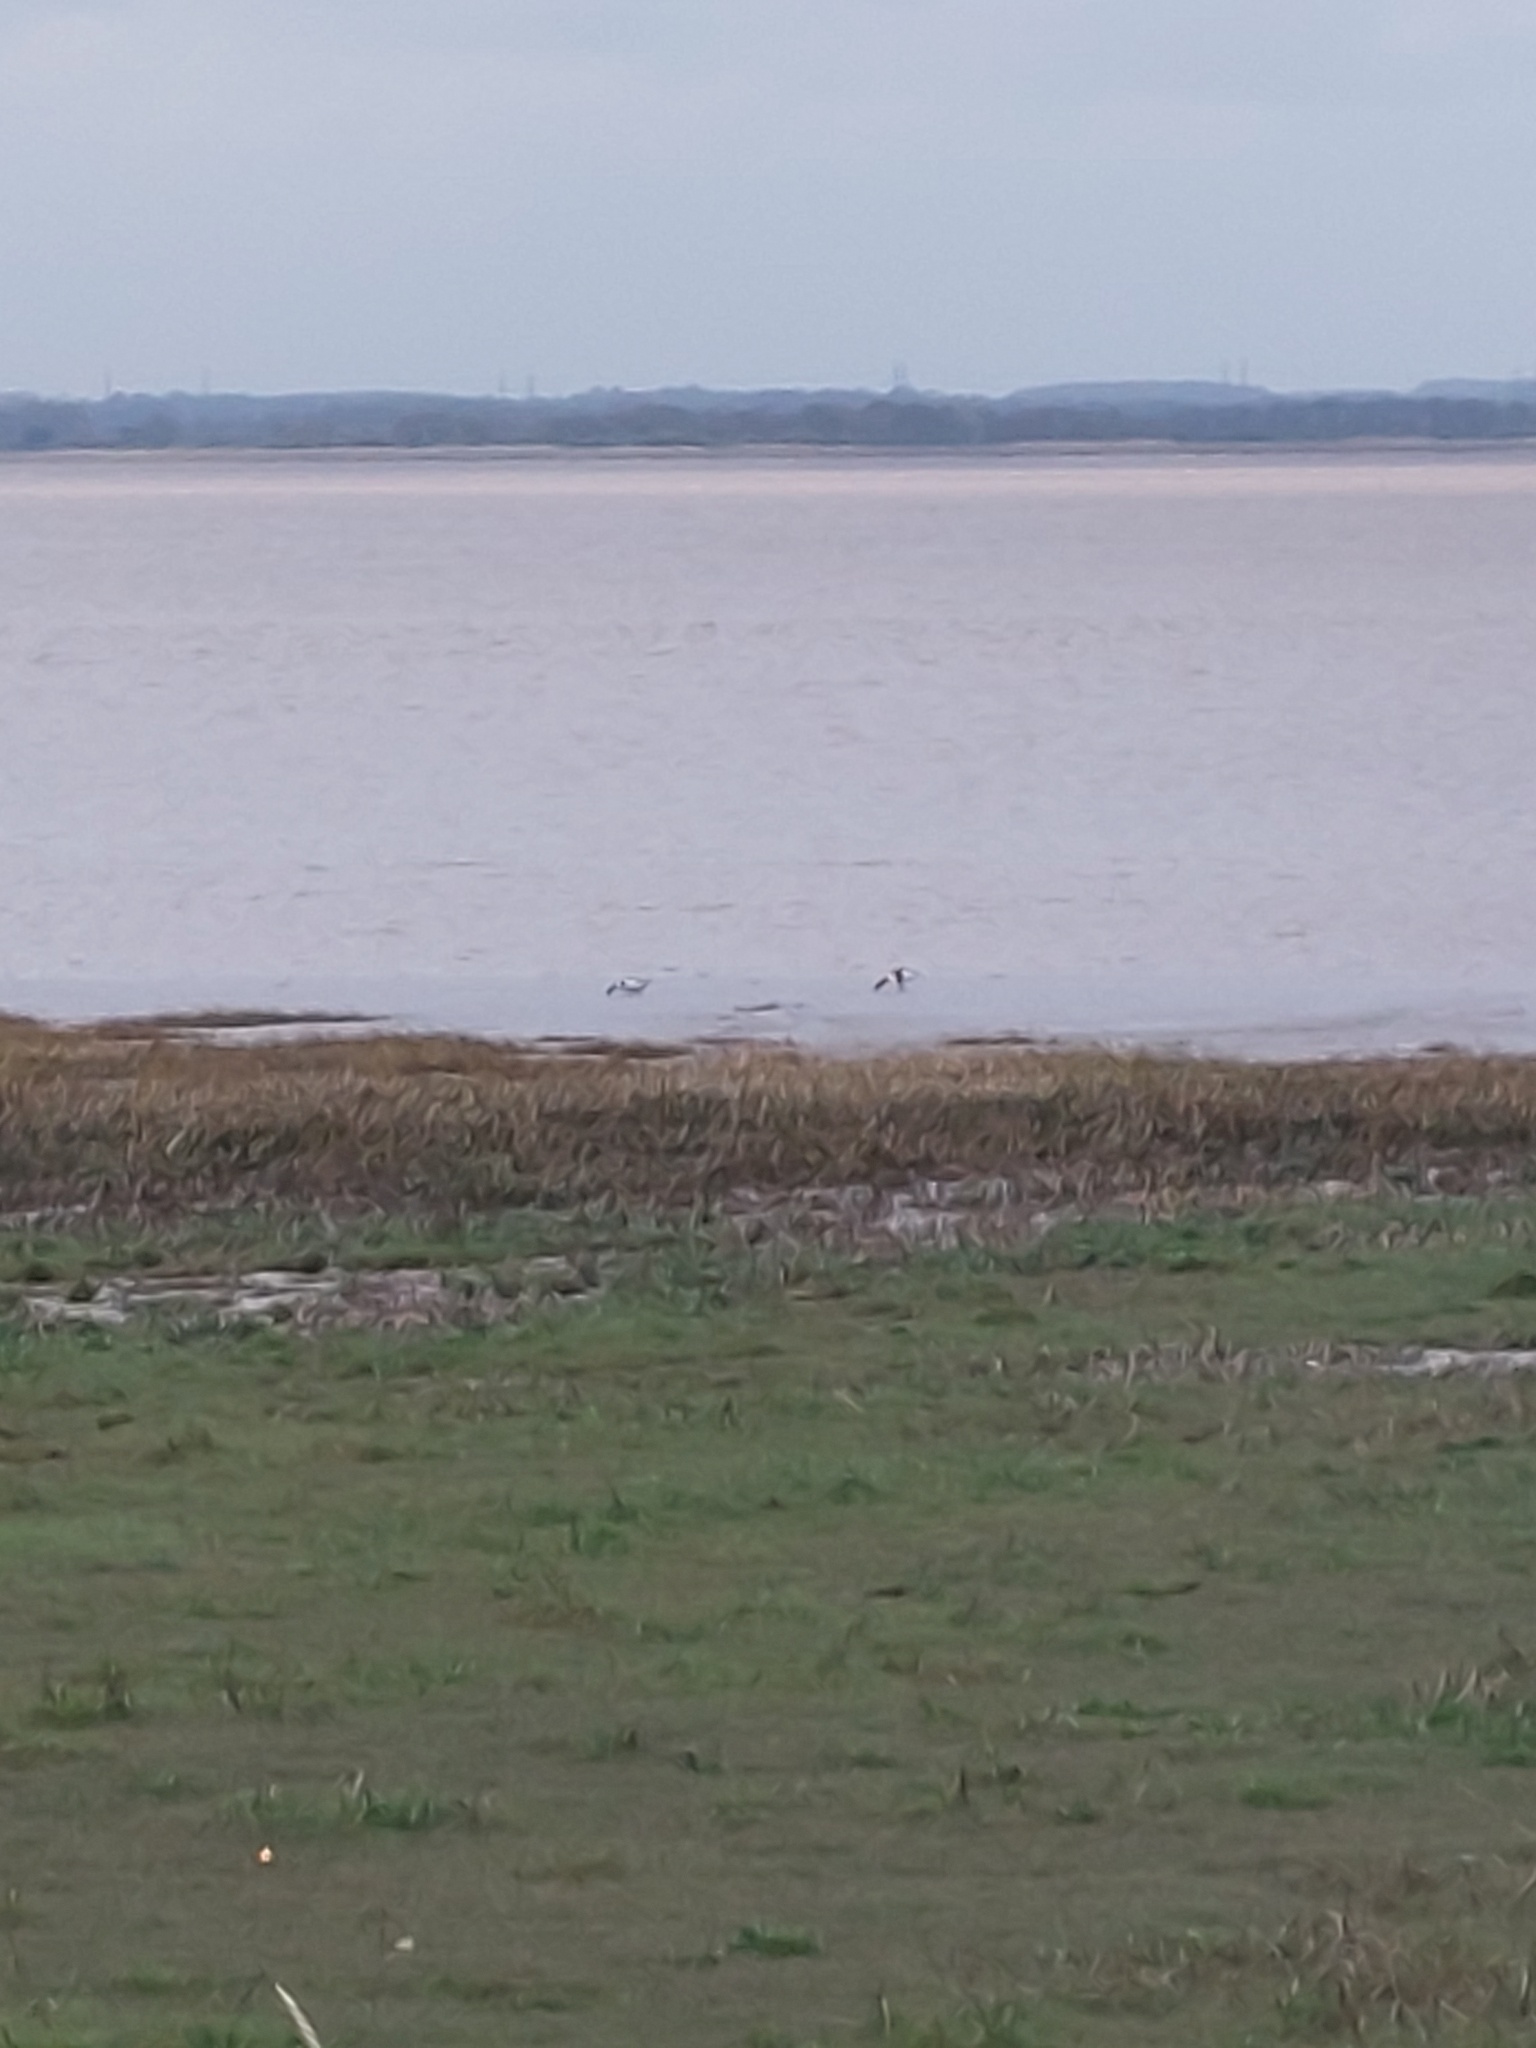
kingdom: Animalia
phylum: Chordata
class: Aves
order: Anseriformes
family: Anatidae
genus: Tadorna
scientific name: Tadorna tadorna
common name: Common shelduck
